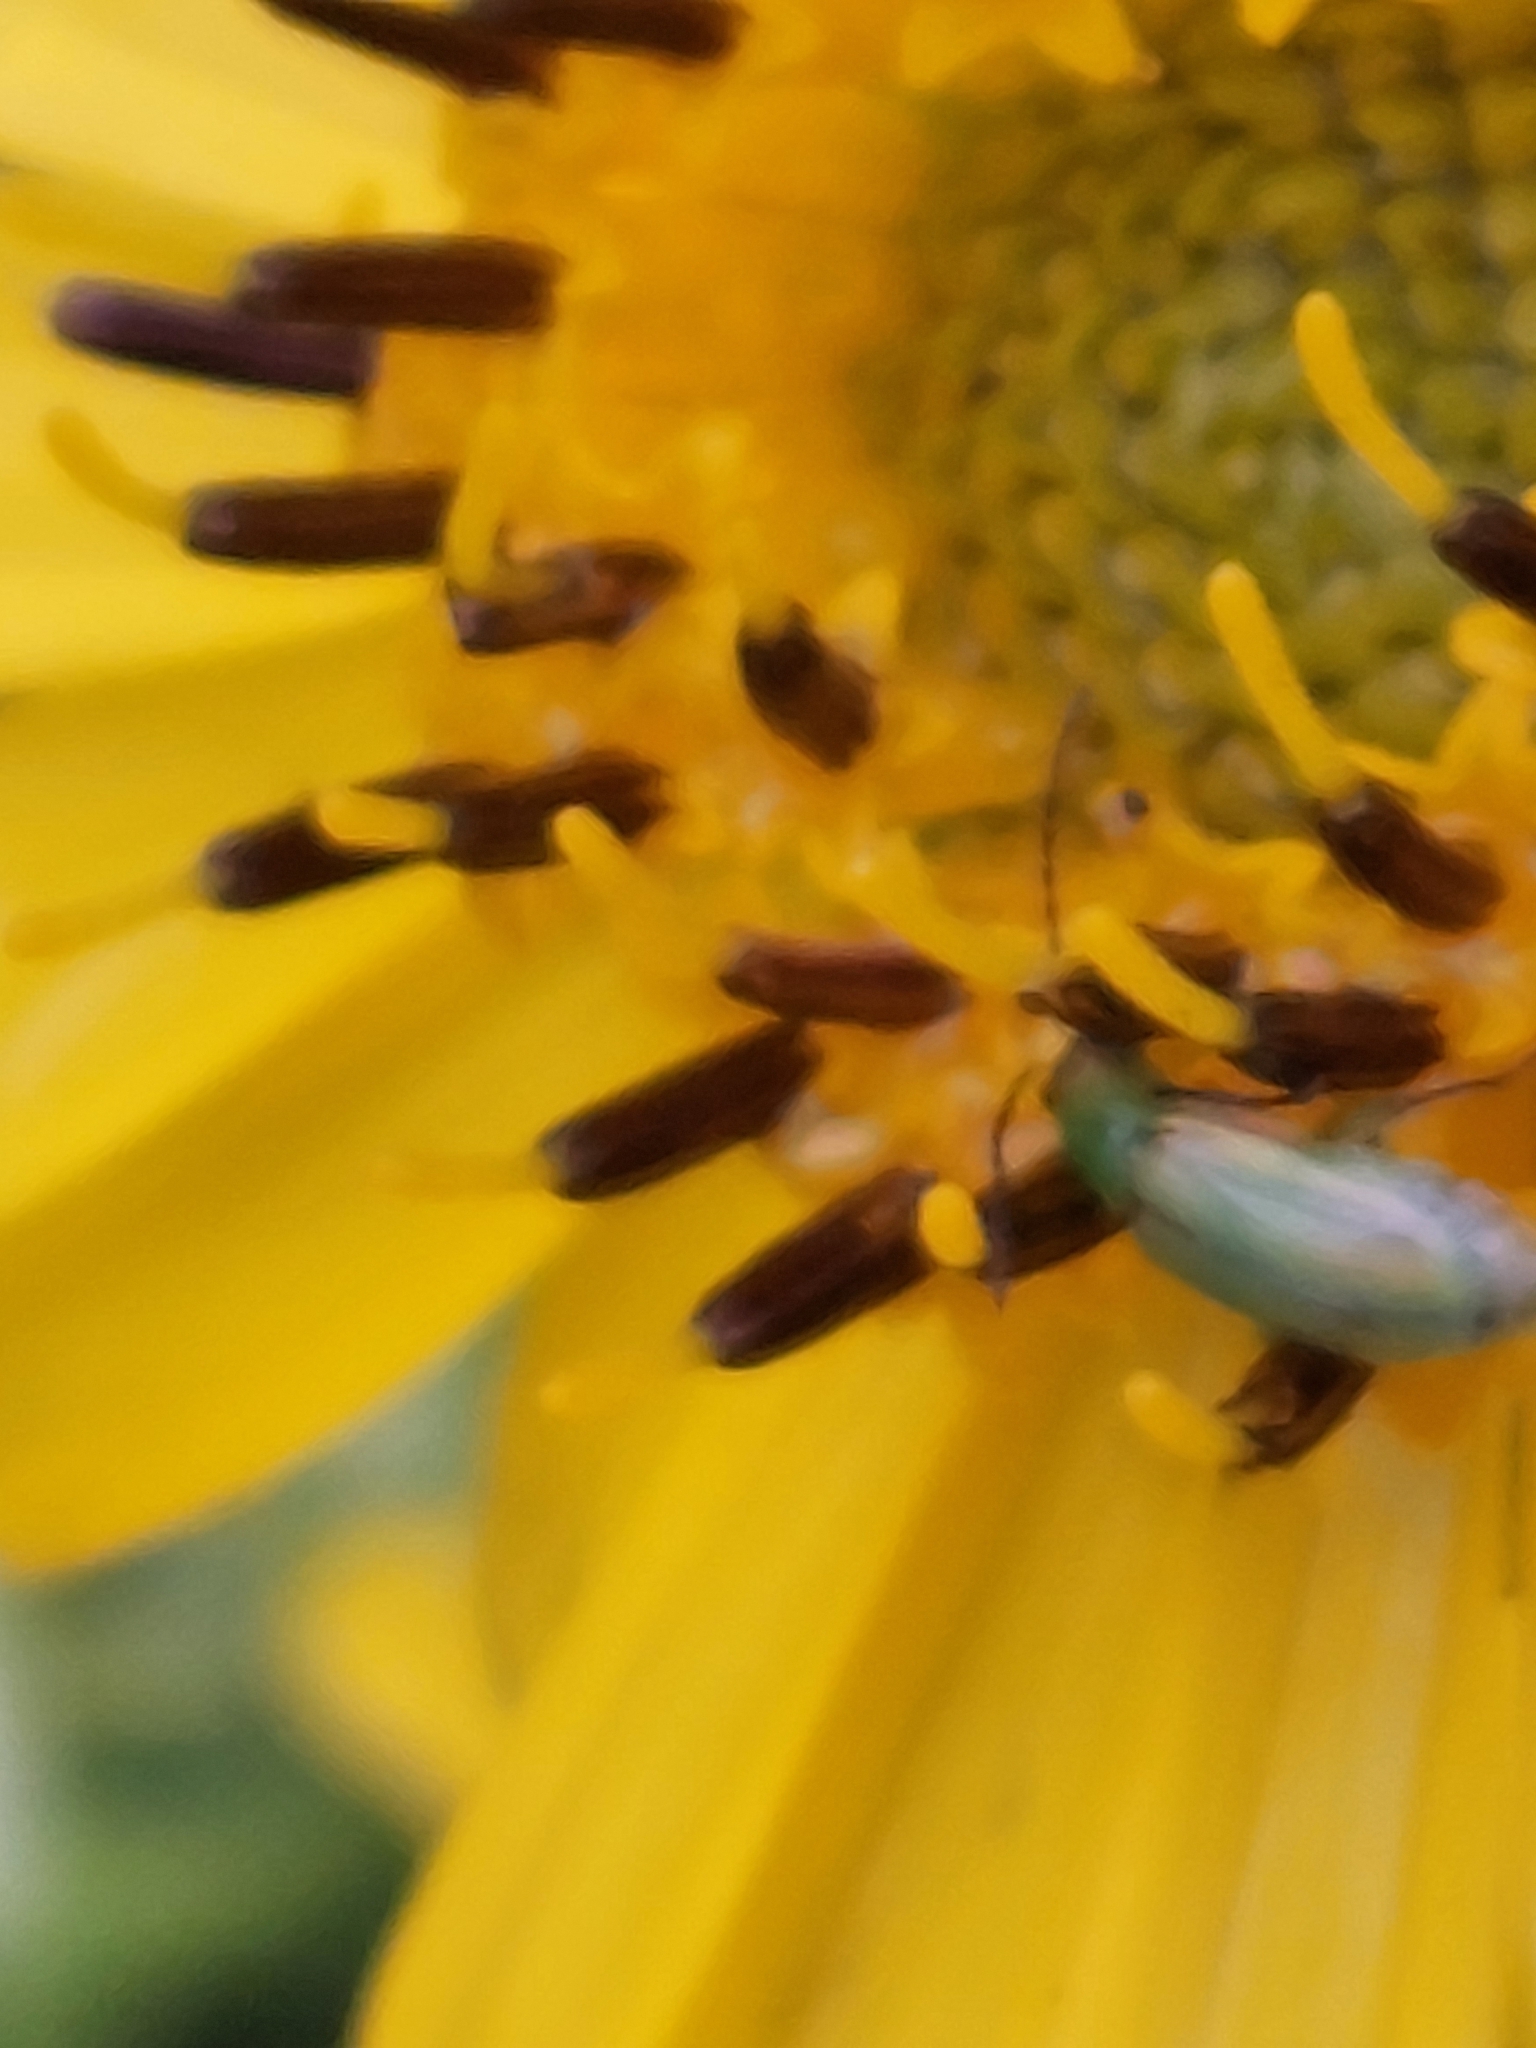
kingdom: Animalia
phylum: Arthropoda
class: Insecta
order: Coleoptera
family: Chrysomelidae
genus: Diabrotica
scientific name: Diabrotica barberi
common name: Northern corn rootworm
